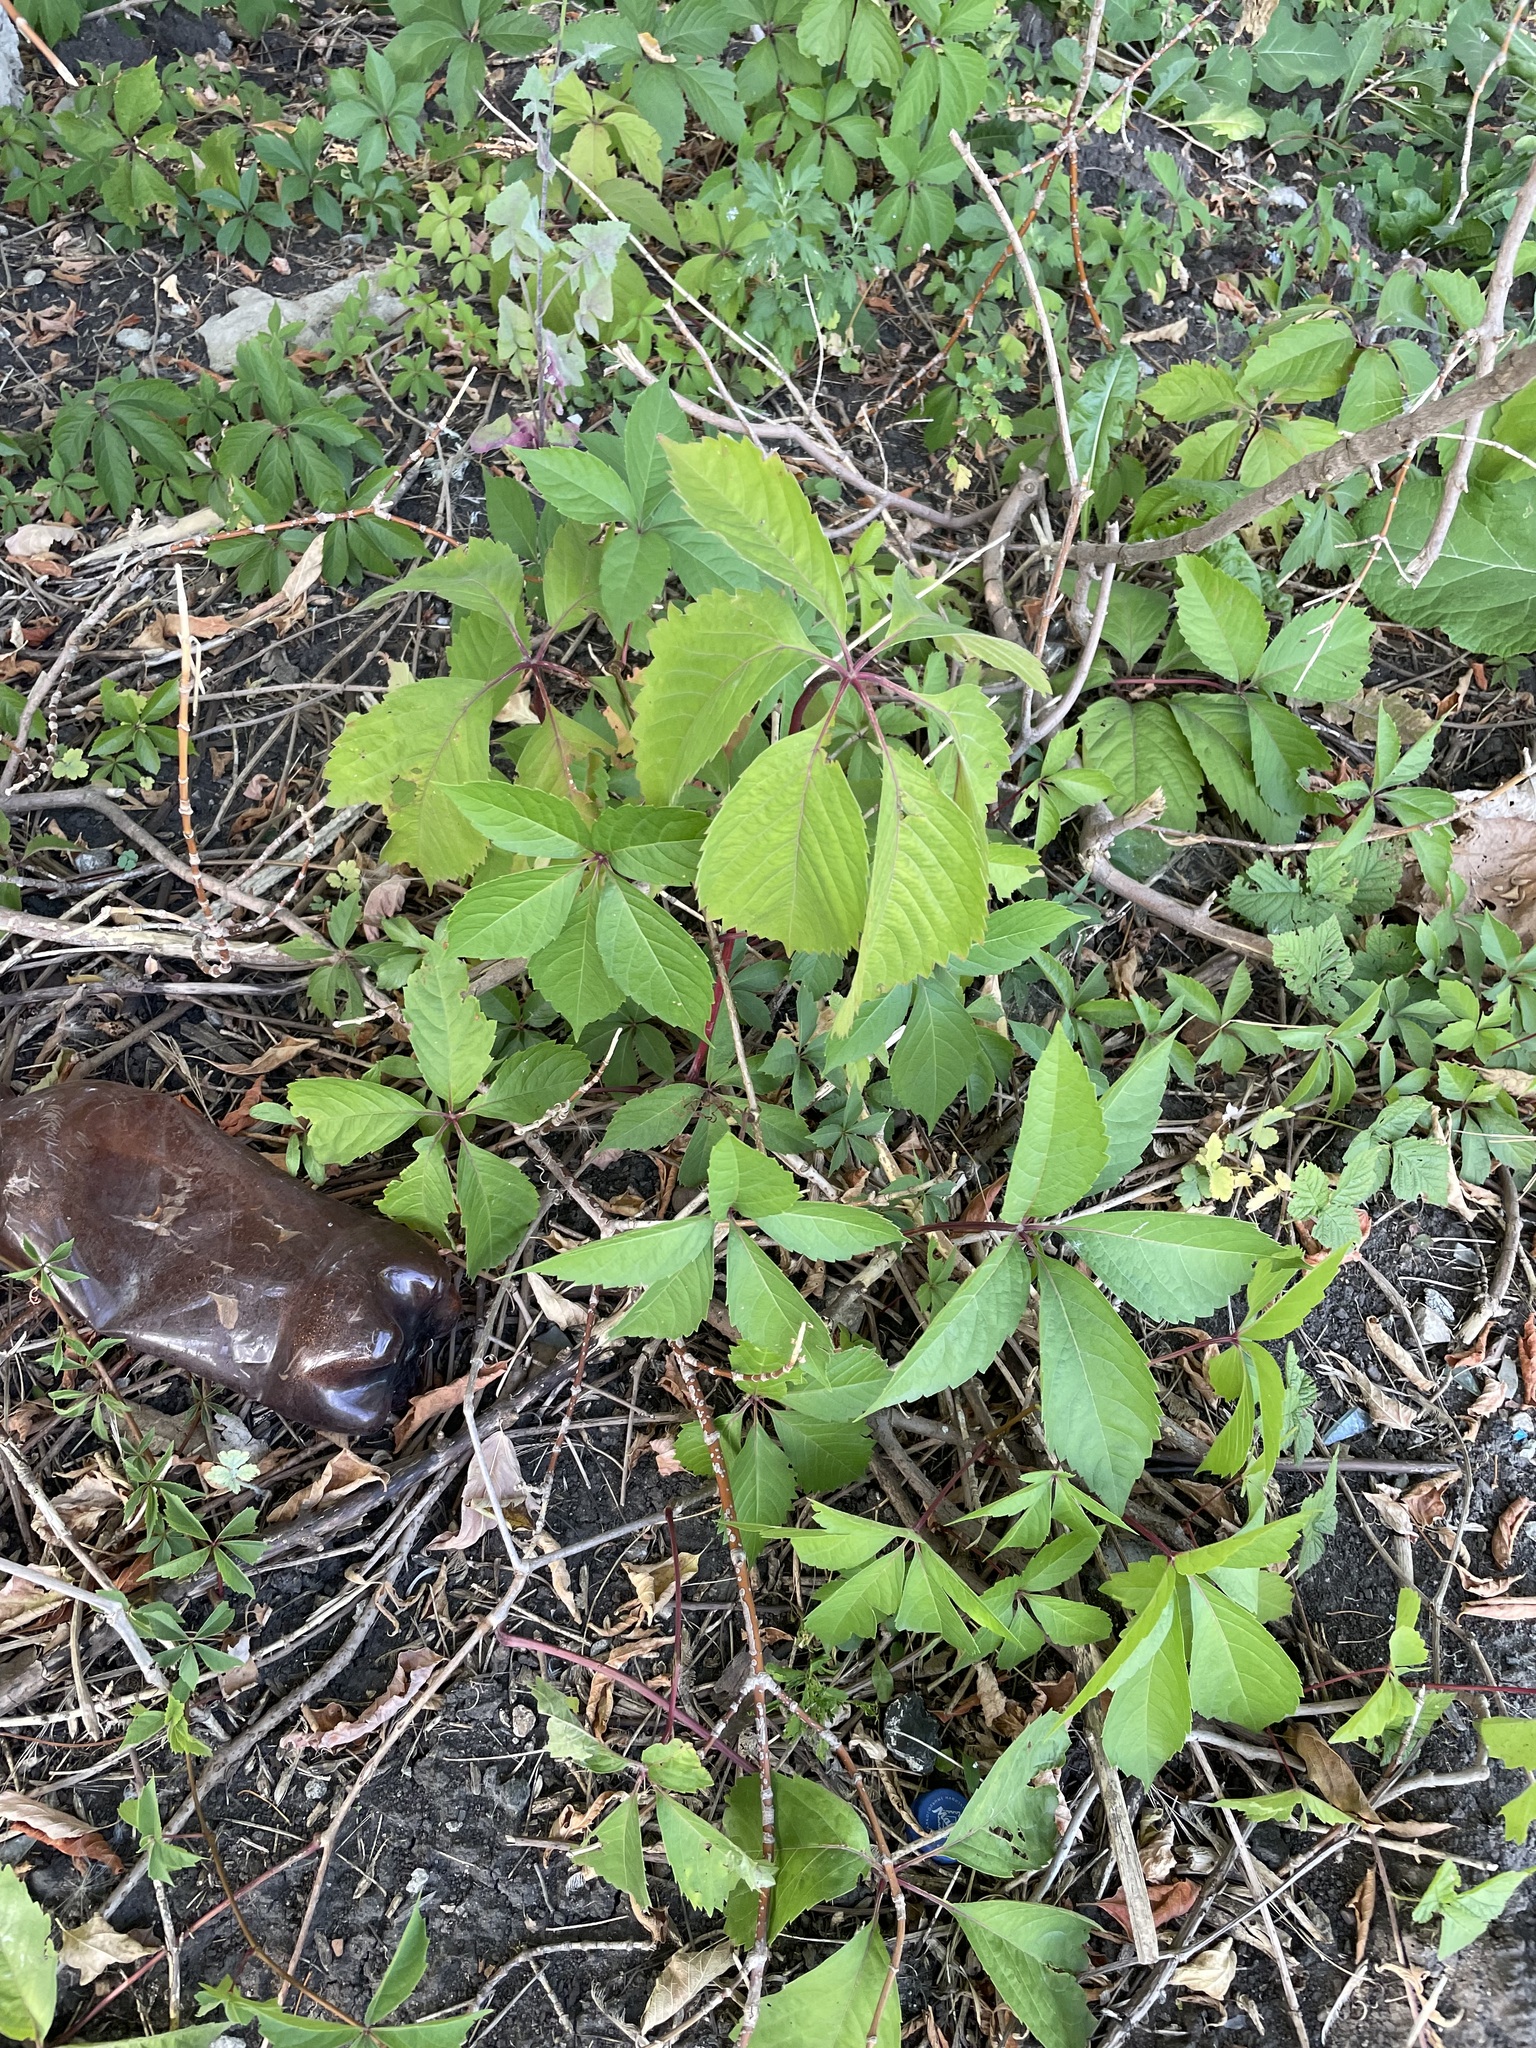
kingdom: Plantae
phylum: Tracheophyta
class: Magnoliopsida
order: Vitales
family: Vitaceae
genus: Parthenocissus
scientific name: Parthenocissus inserta
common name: False virginia-creeper
